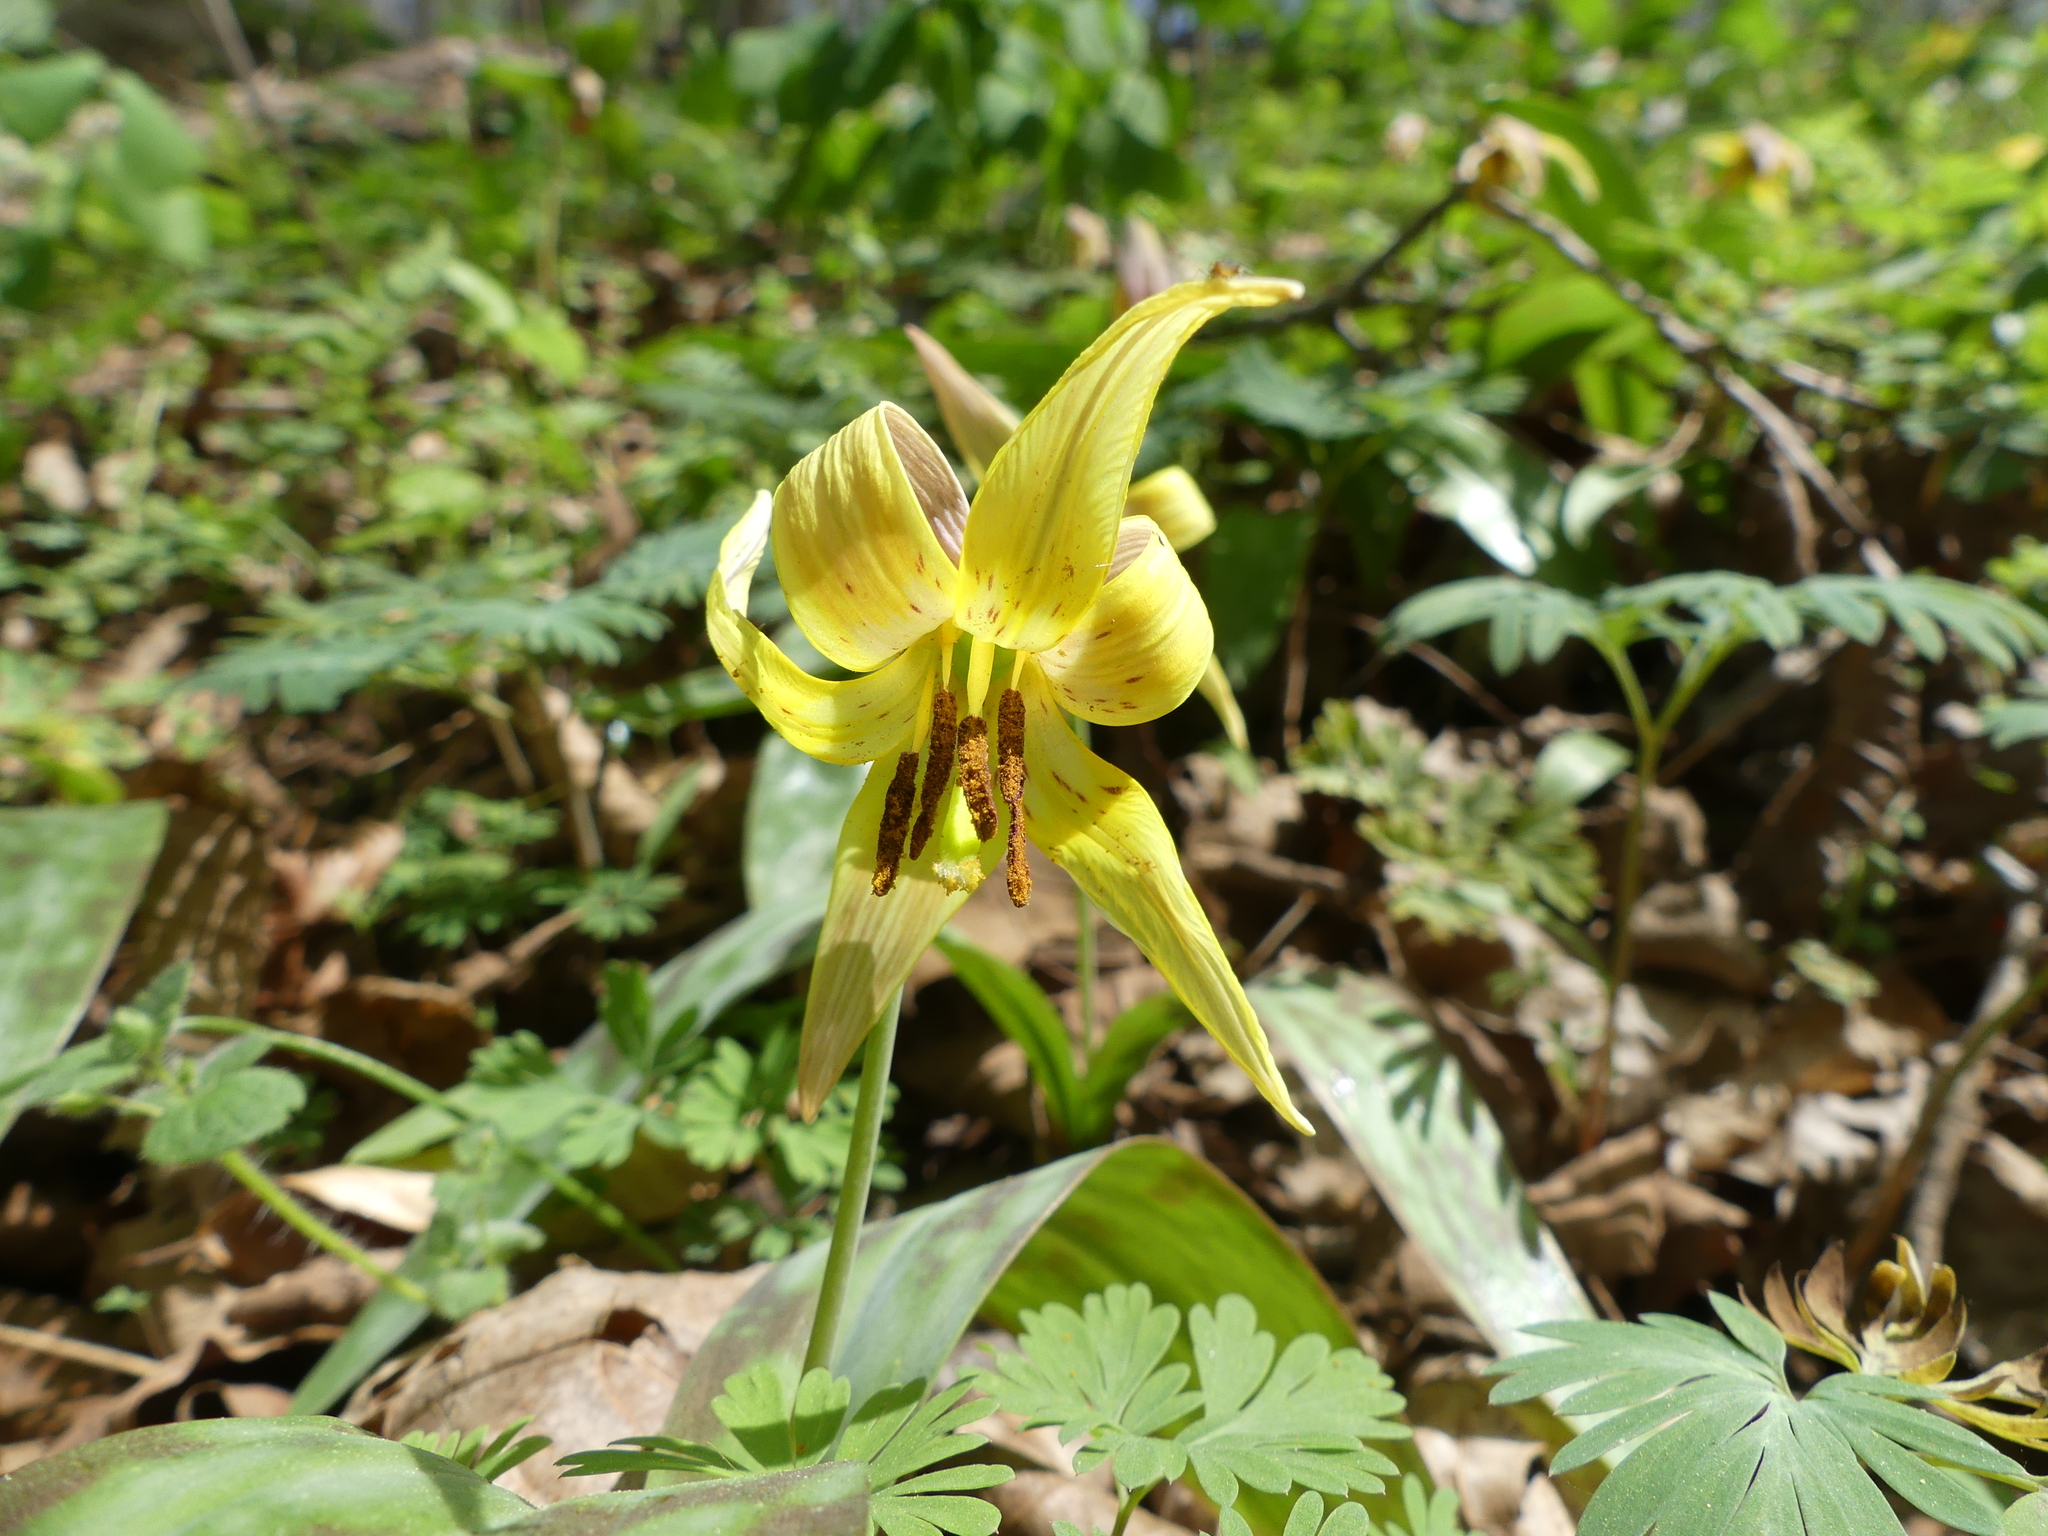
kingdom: Plantae
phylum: Tracheophyta
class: Liliopsida
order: Liliales
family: Liliaceae
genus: Erythronium
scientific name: Erythronium americanum
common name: Yellow adder's-tongue
